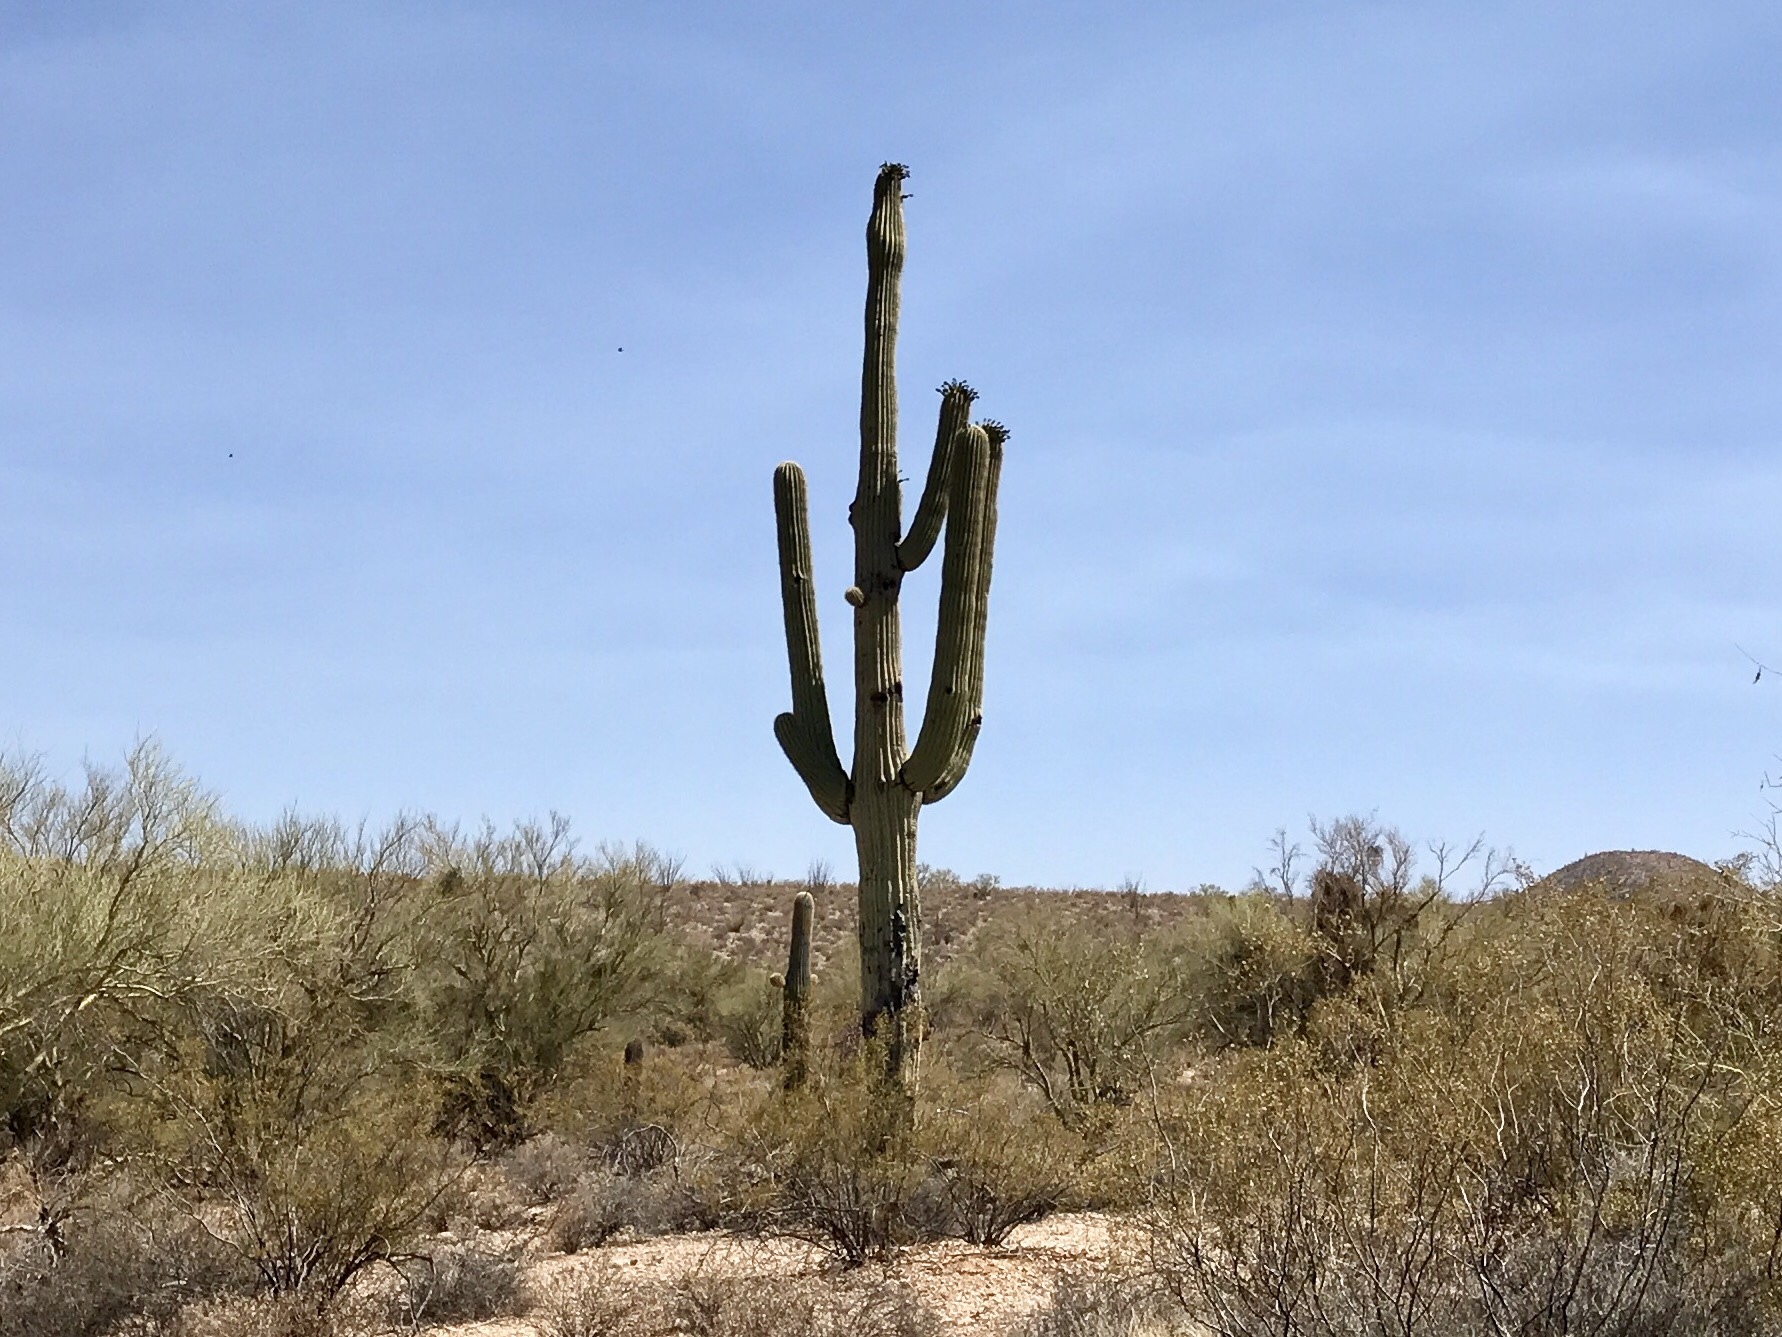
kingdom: Plantae
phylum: Tracheophyta
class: Magnoliopsida
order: Caryophyllales
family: Cactaceae
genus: Carnegiea
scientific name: Carnegiea gigantea
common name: Saguaro
